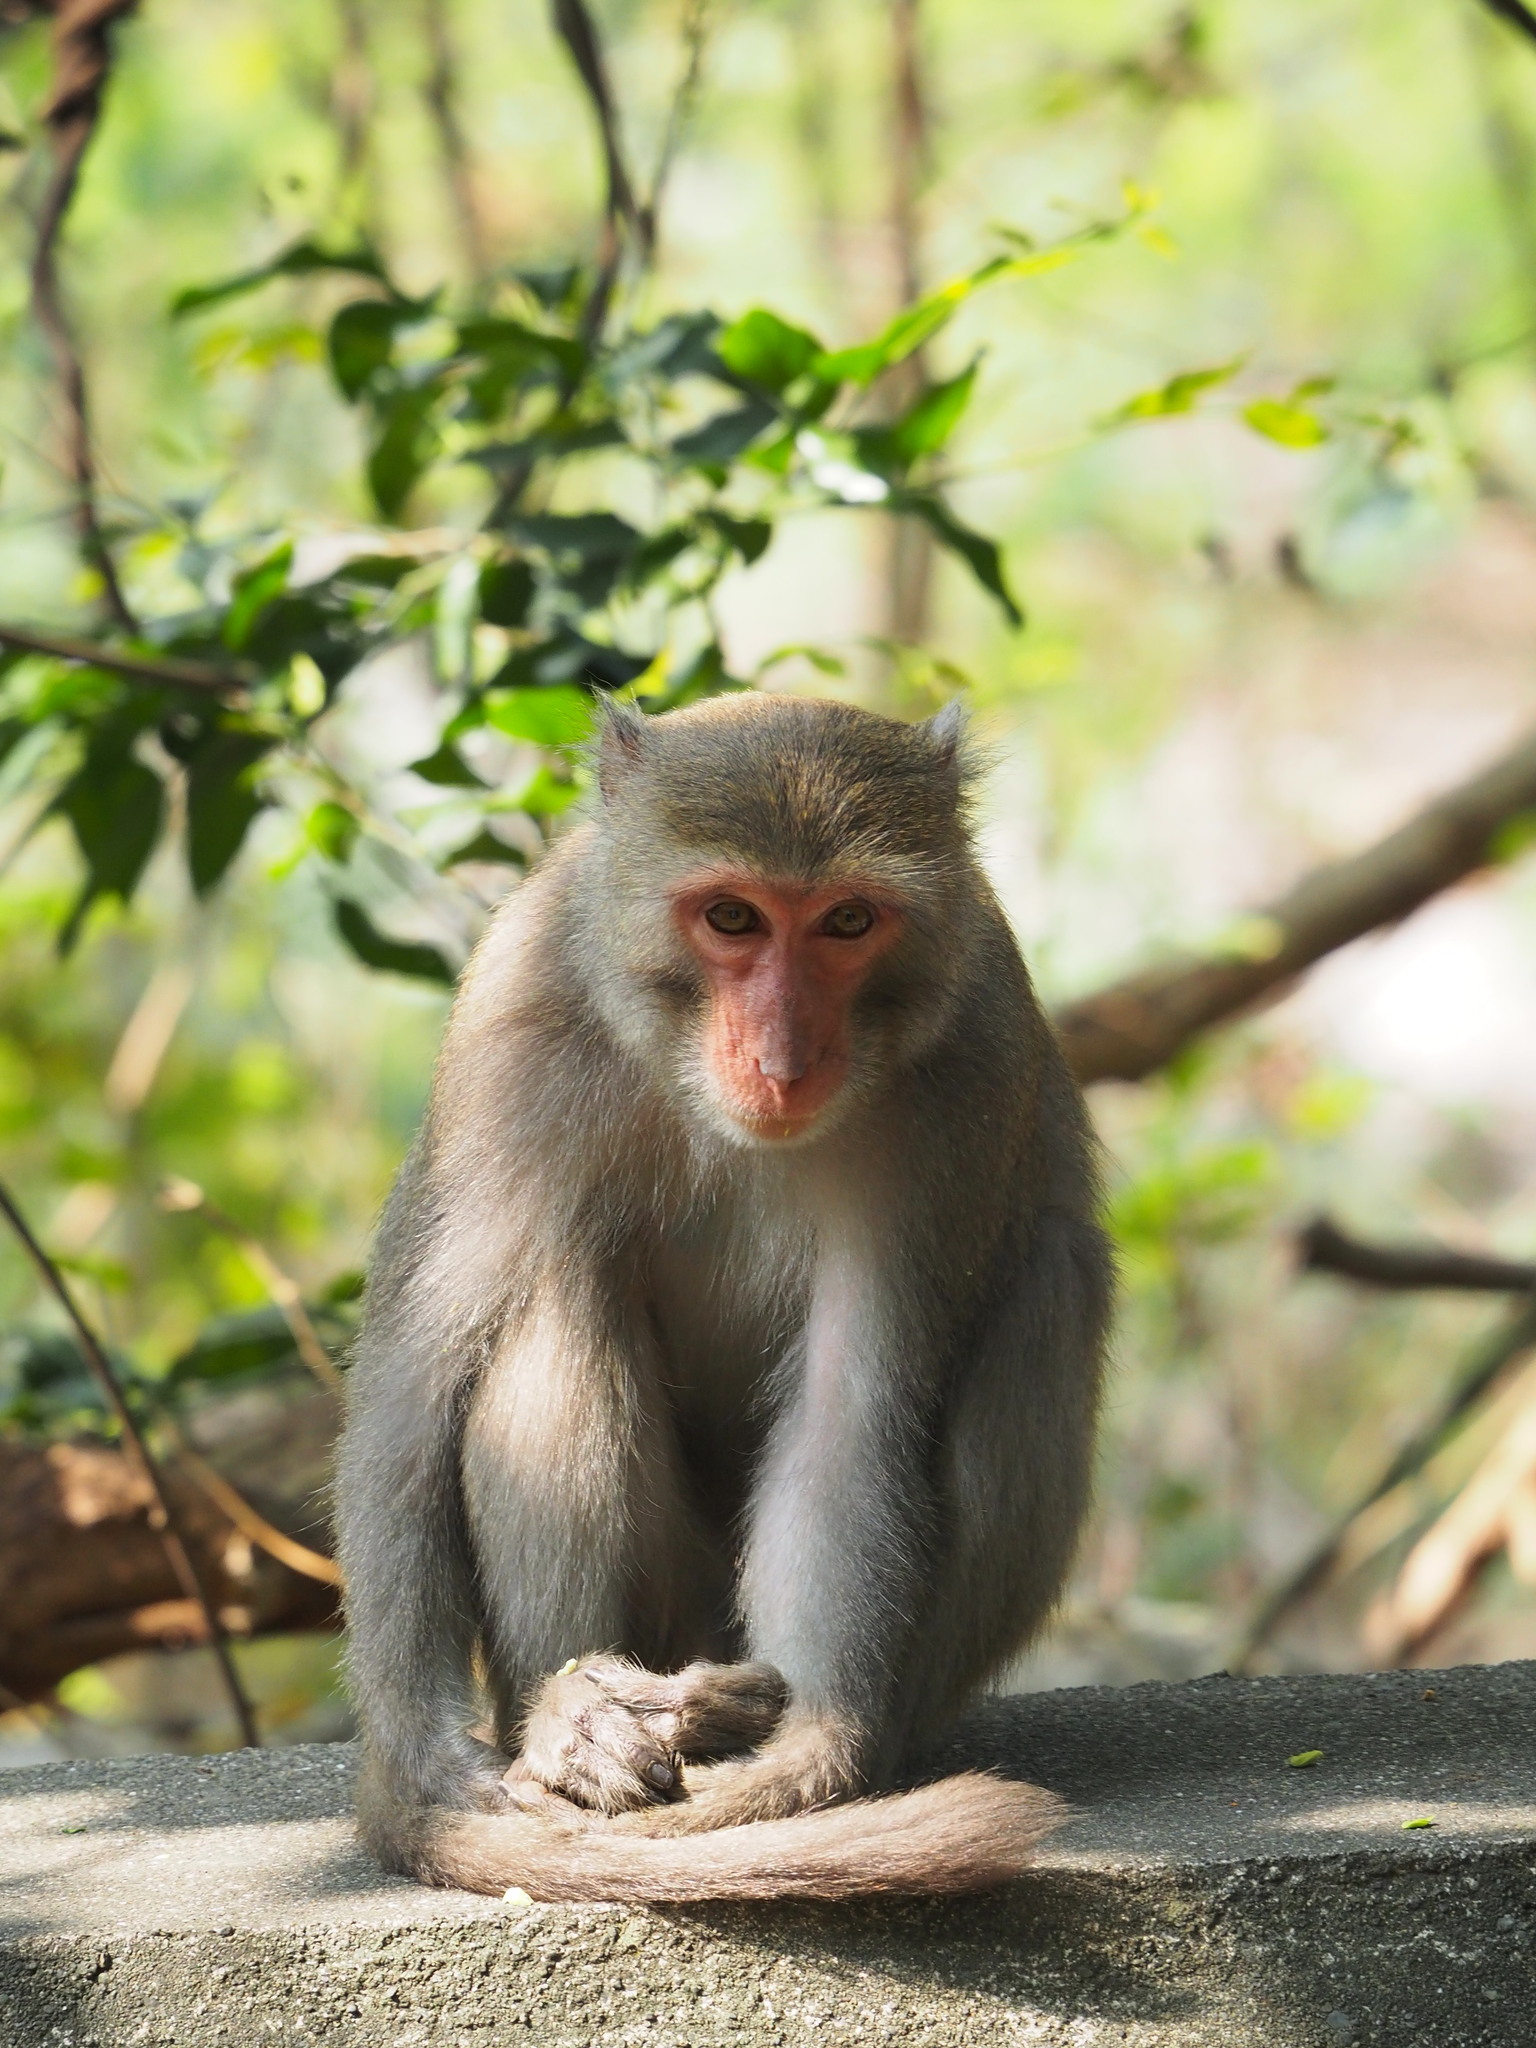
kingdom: Animalia
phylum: Chordata
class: Mammalia
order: Primates
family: Cercopithecidae
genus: Macaca
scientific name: Macaca cyclopis
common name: Formosan rock macaque
